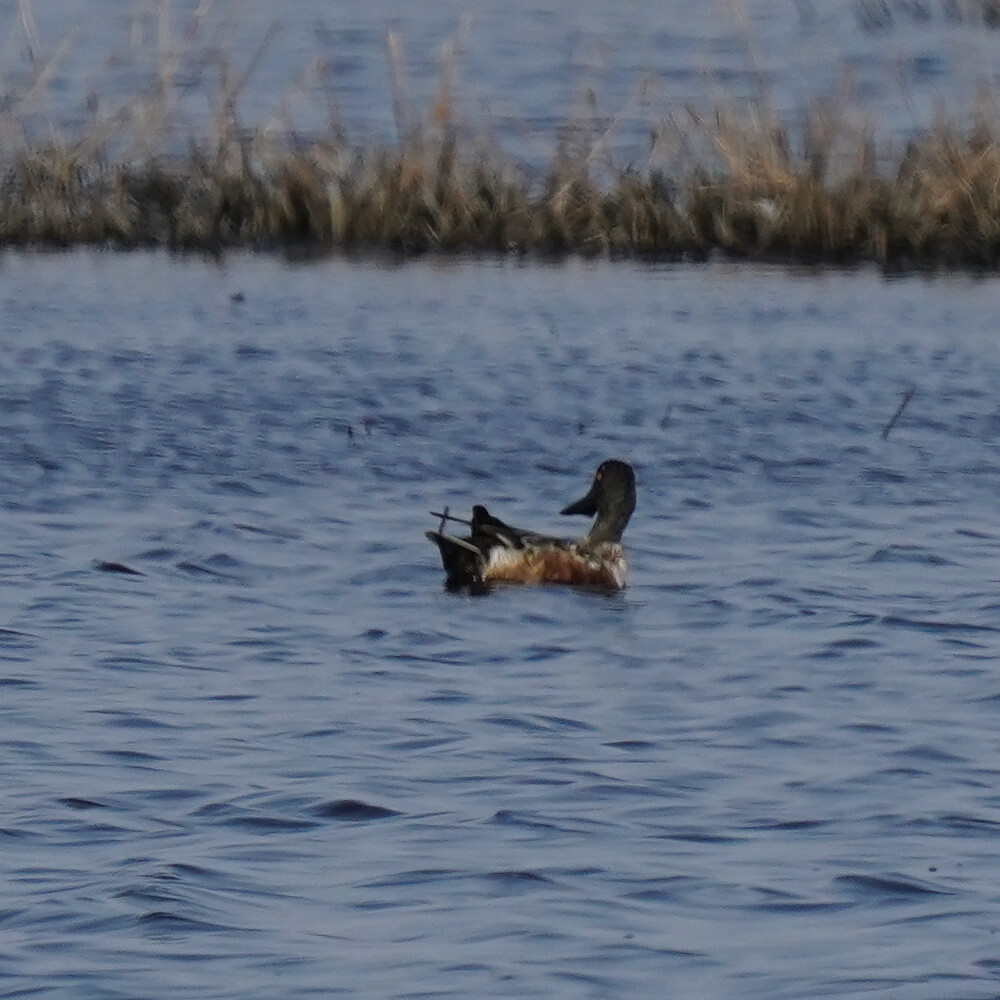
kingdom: Animalia
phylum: Chordata
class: Aves
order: Anseriformes
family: Anatidae
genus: Spatula
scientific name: Spatula clypeata
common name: Northern shoveler
